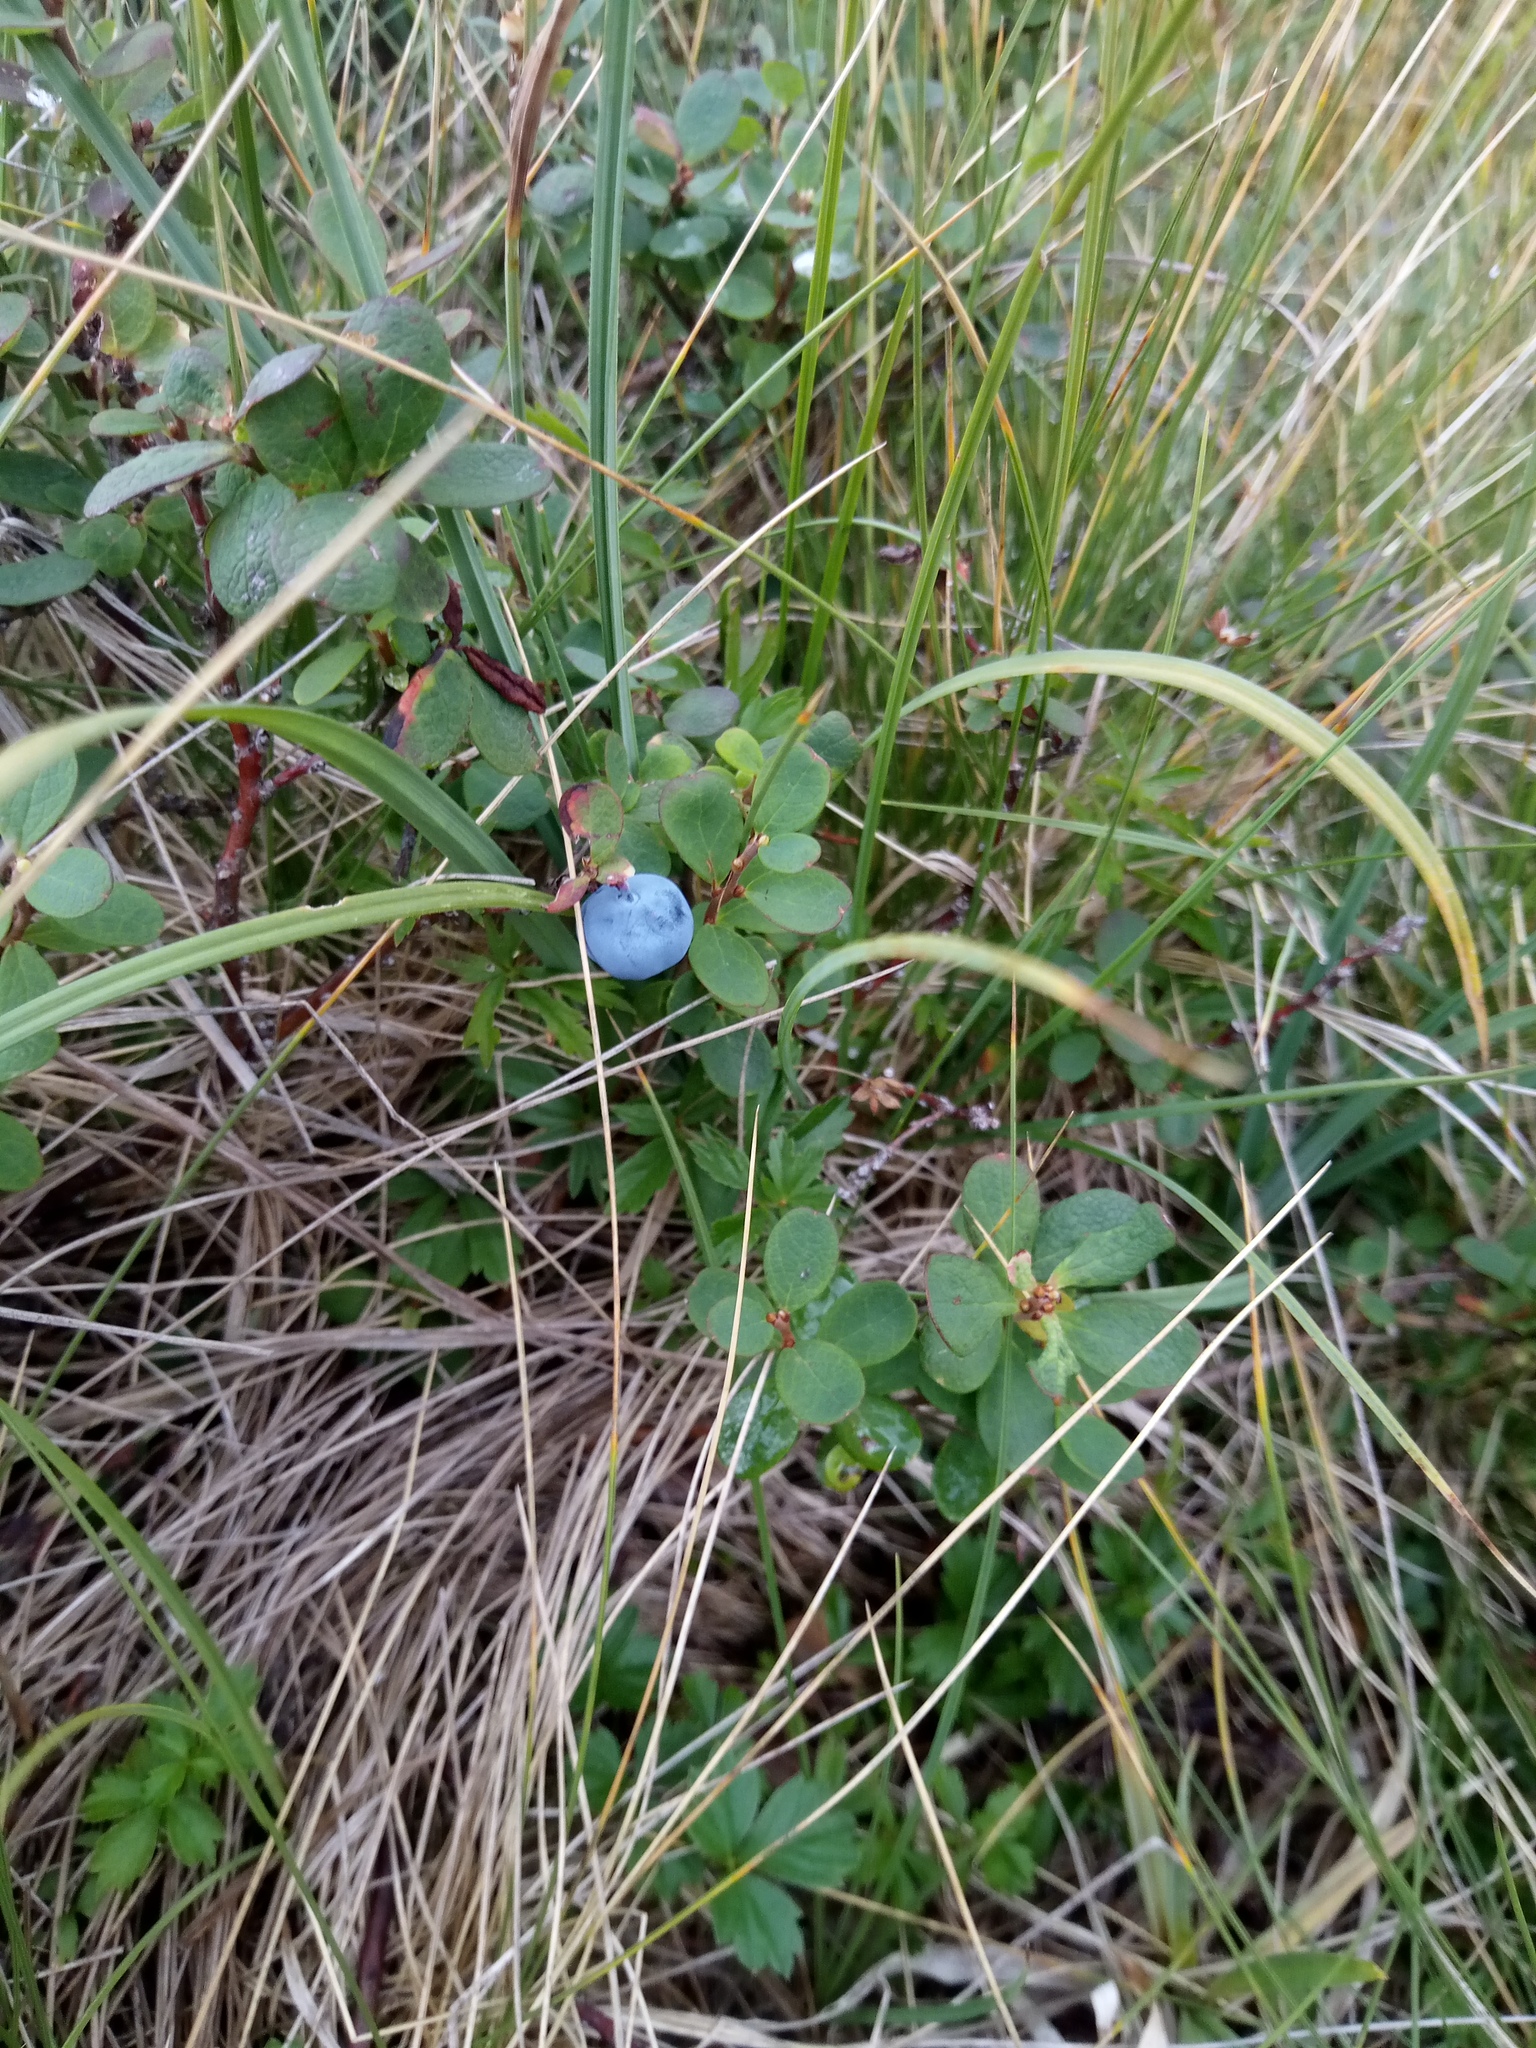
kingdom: Plantae
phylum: Tracheophyta
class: Magnoliopsida
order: Ericales
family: Ericaceae
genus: Vaccinium
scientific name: Vaccinium uliginosum
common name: Bog bilberry
